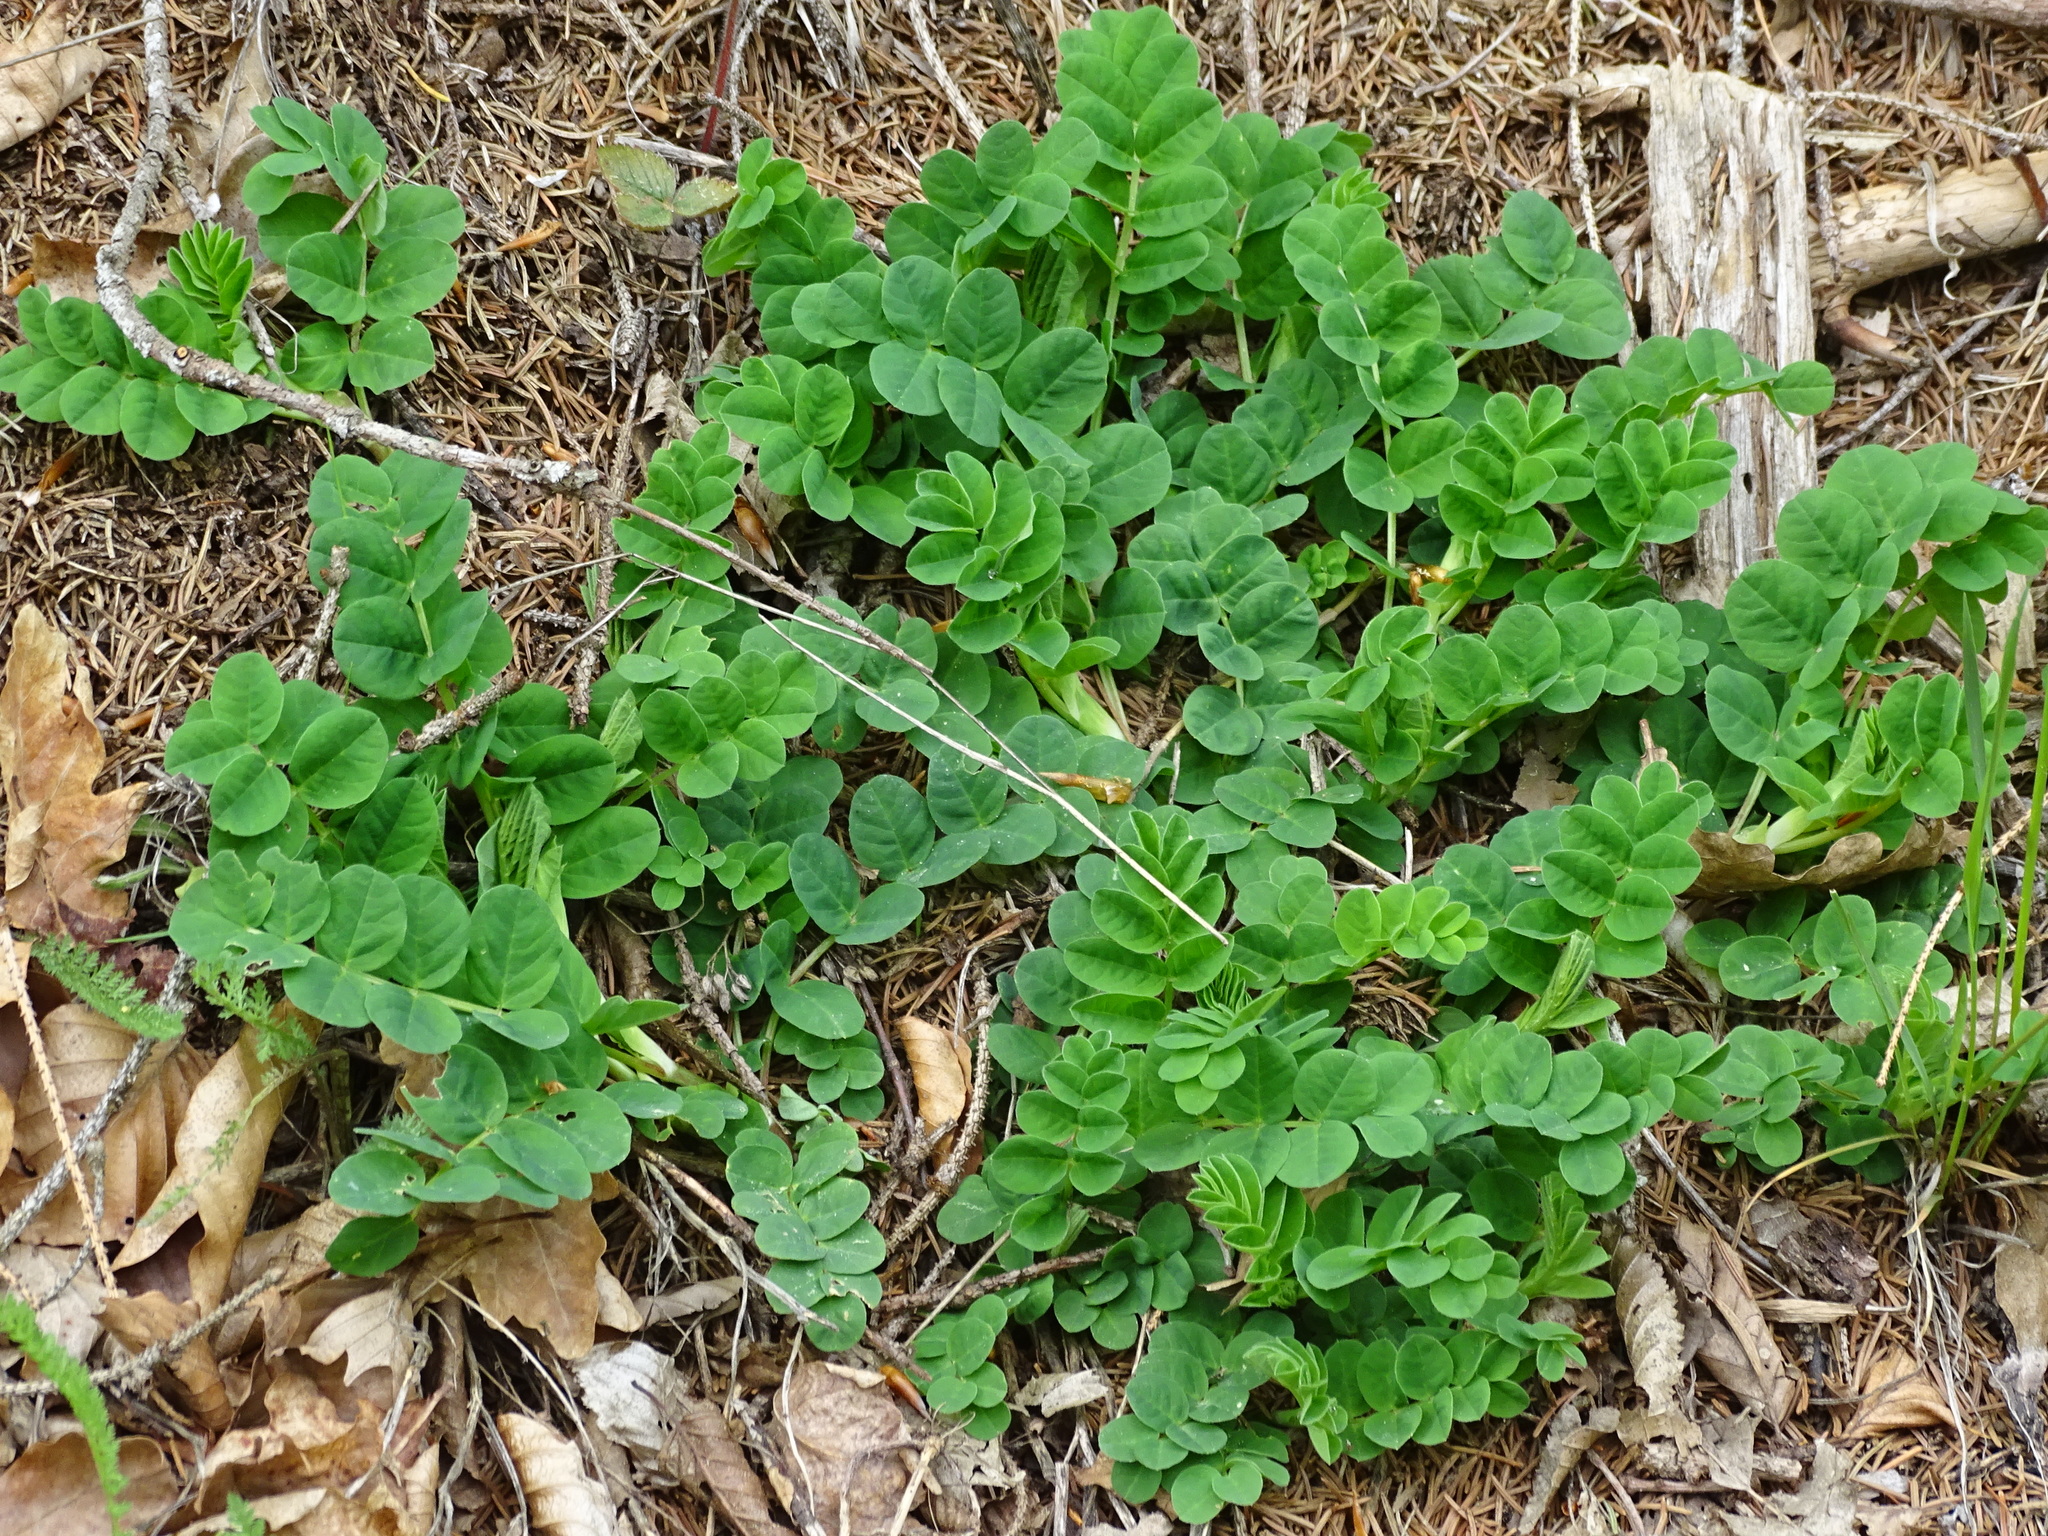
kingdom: Plantae
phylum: Tracheophyta
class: Magnoliopsida
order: Fabales
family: Fabaceae
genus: Astragalus
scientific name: Astragalus glycyphyllos
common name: Wild liquorice
